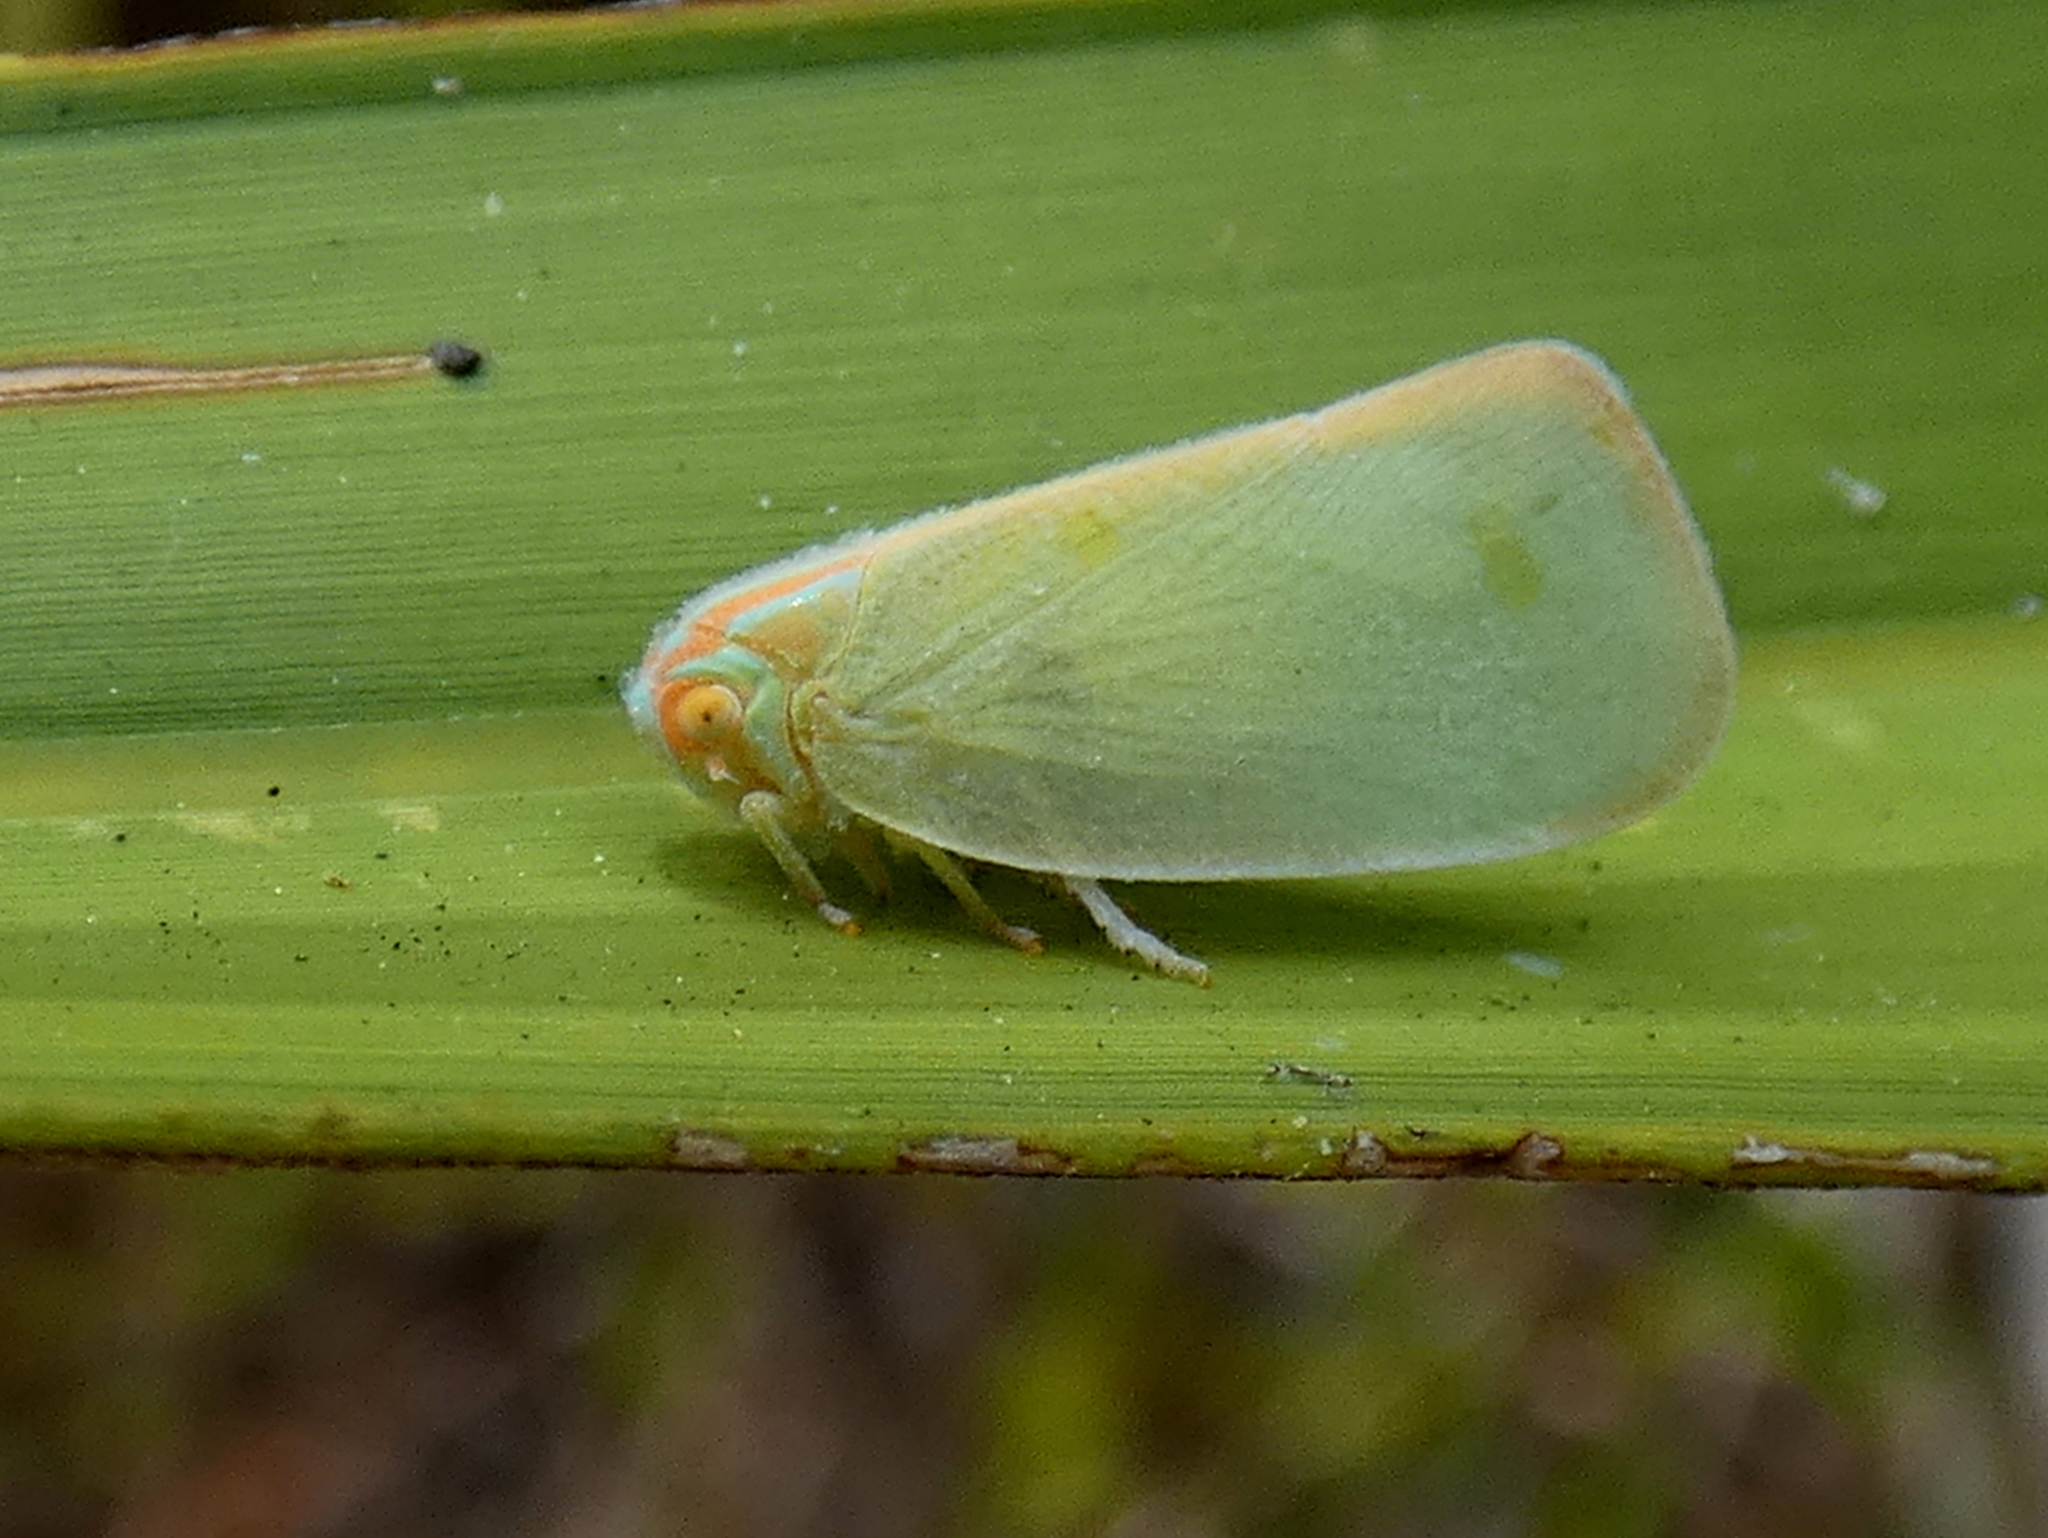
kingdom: Animalia
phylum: Arthropoda
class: Insecta
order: Hemiptera
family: Flatidae
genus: Ormenaria
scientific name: Ormenaria rufifascia
